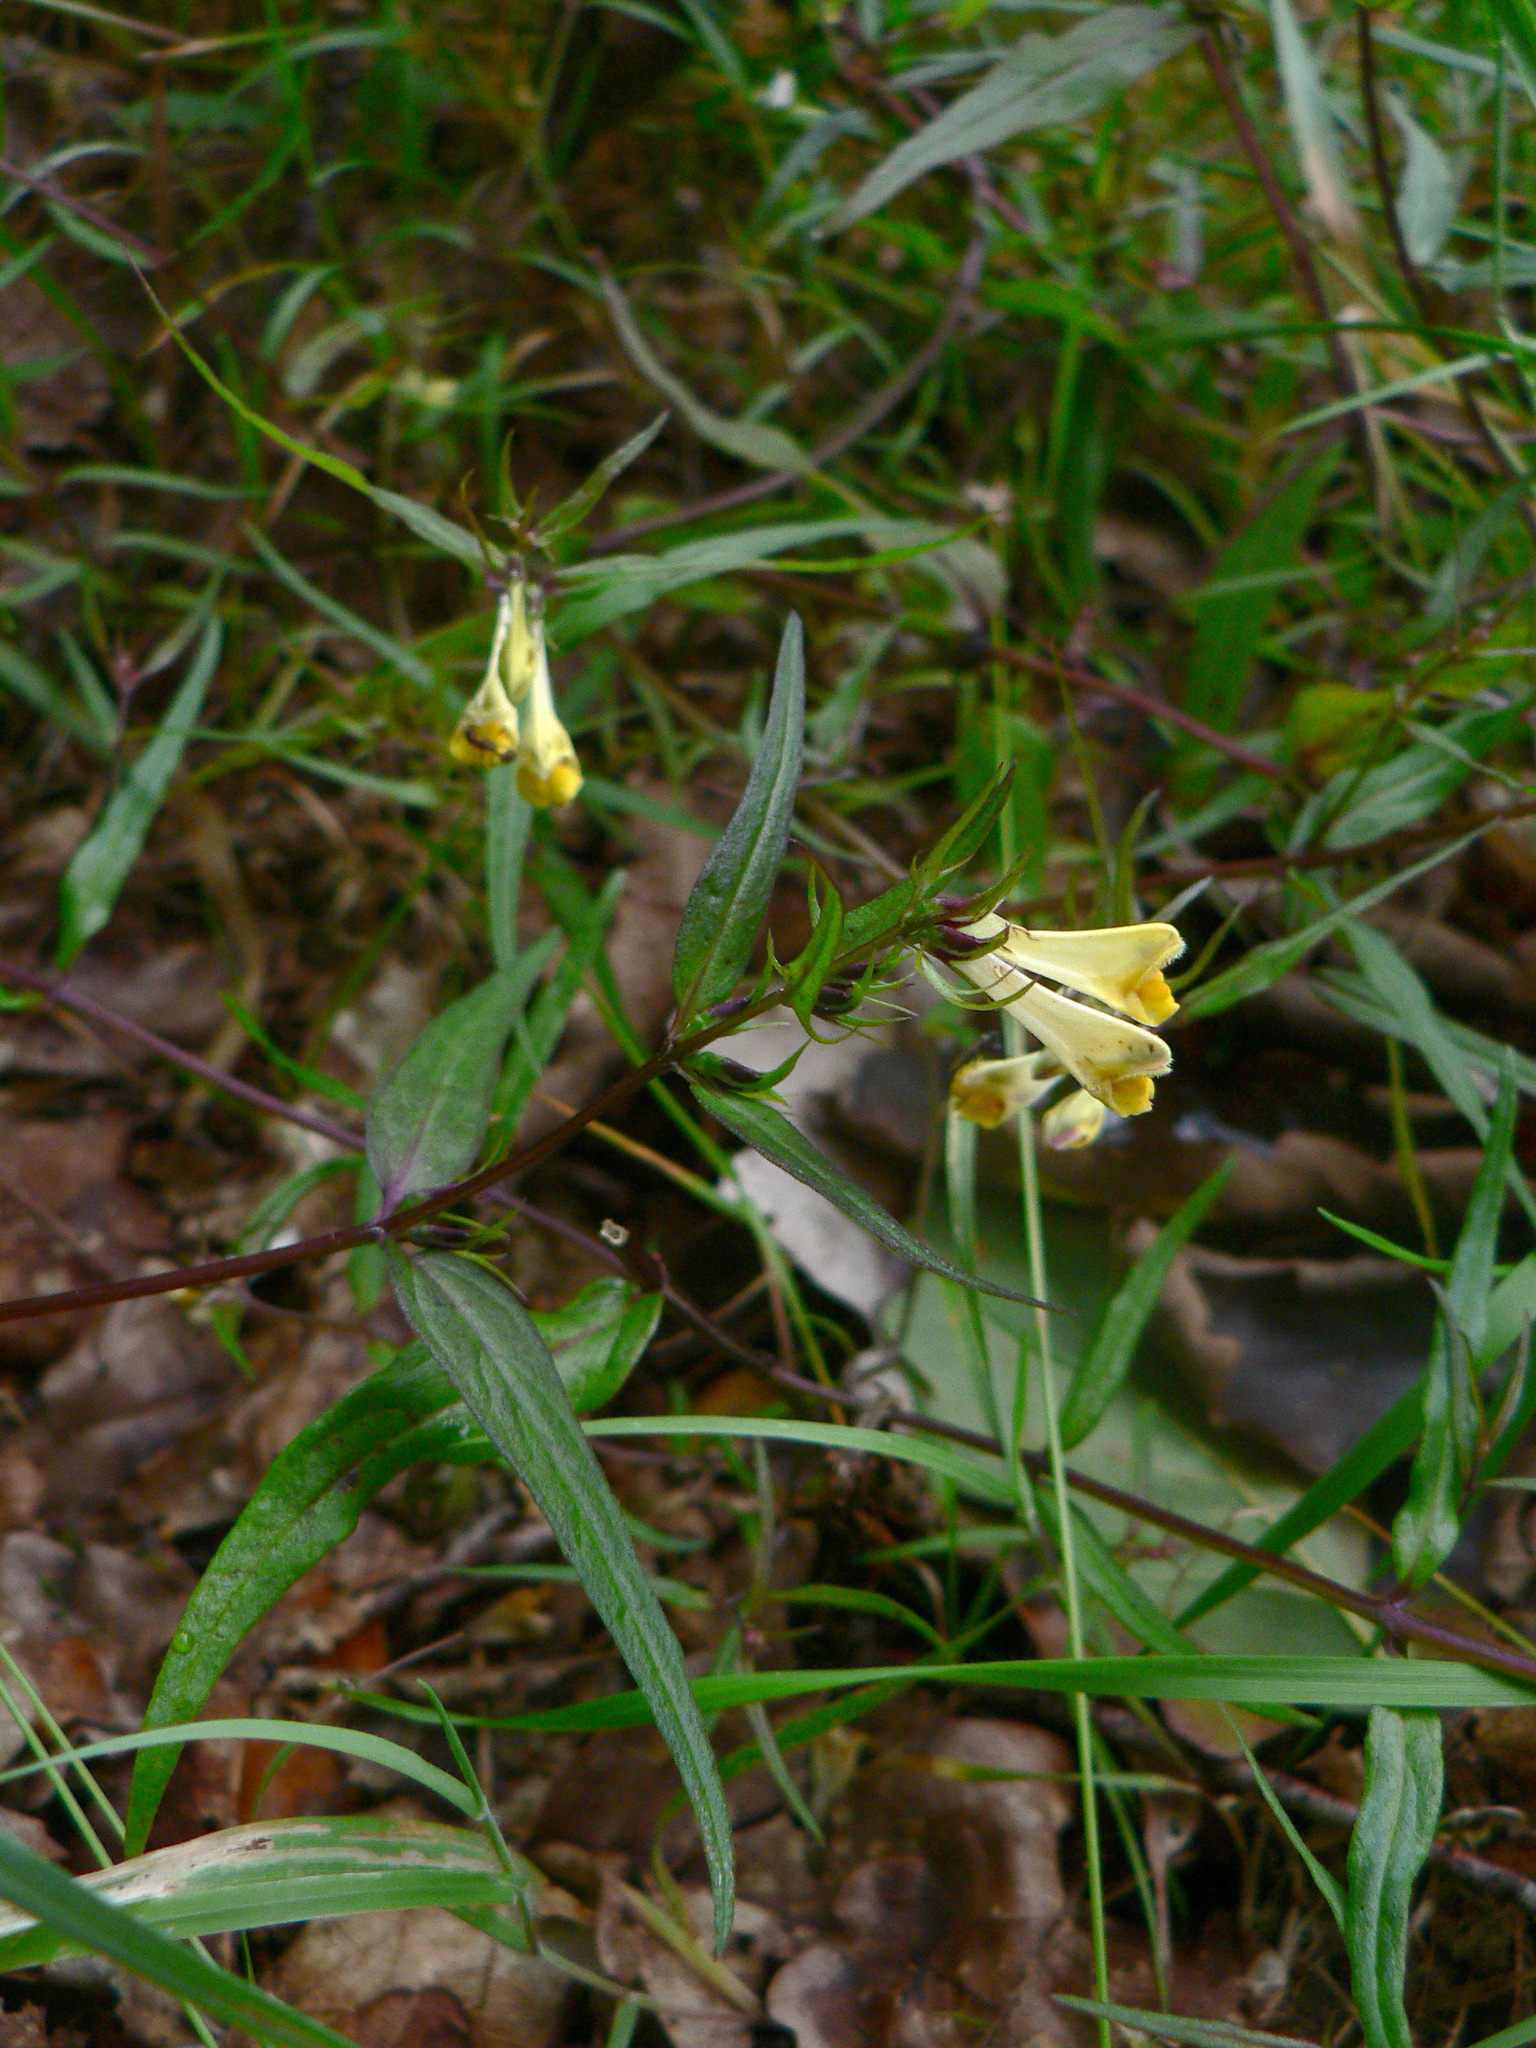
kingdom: Plantae
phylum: Tracheophyta
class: Magnoliopsida
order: Lamiales
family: Orobanchaceae
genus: Melampyrum
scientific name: Melampyrum pratense
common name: Common cow-wheat
